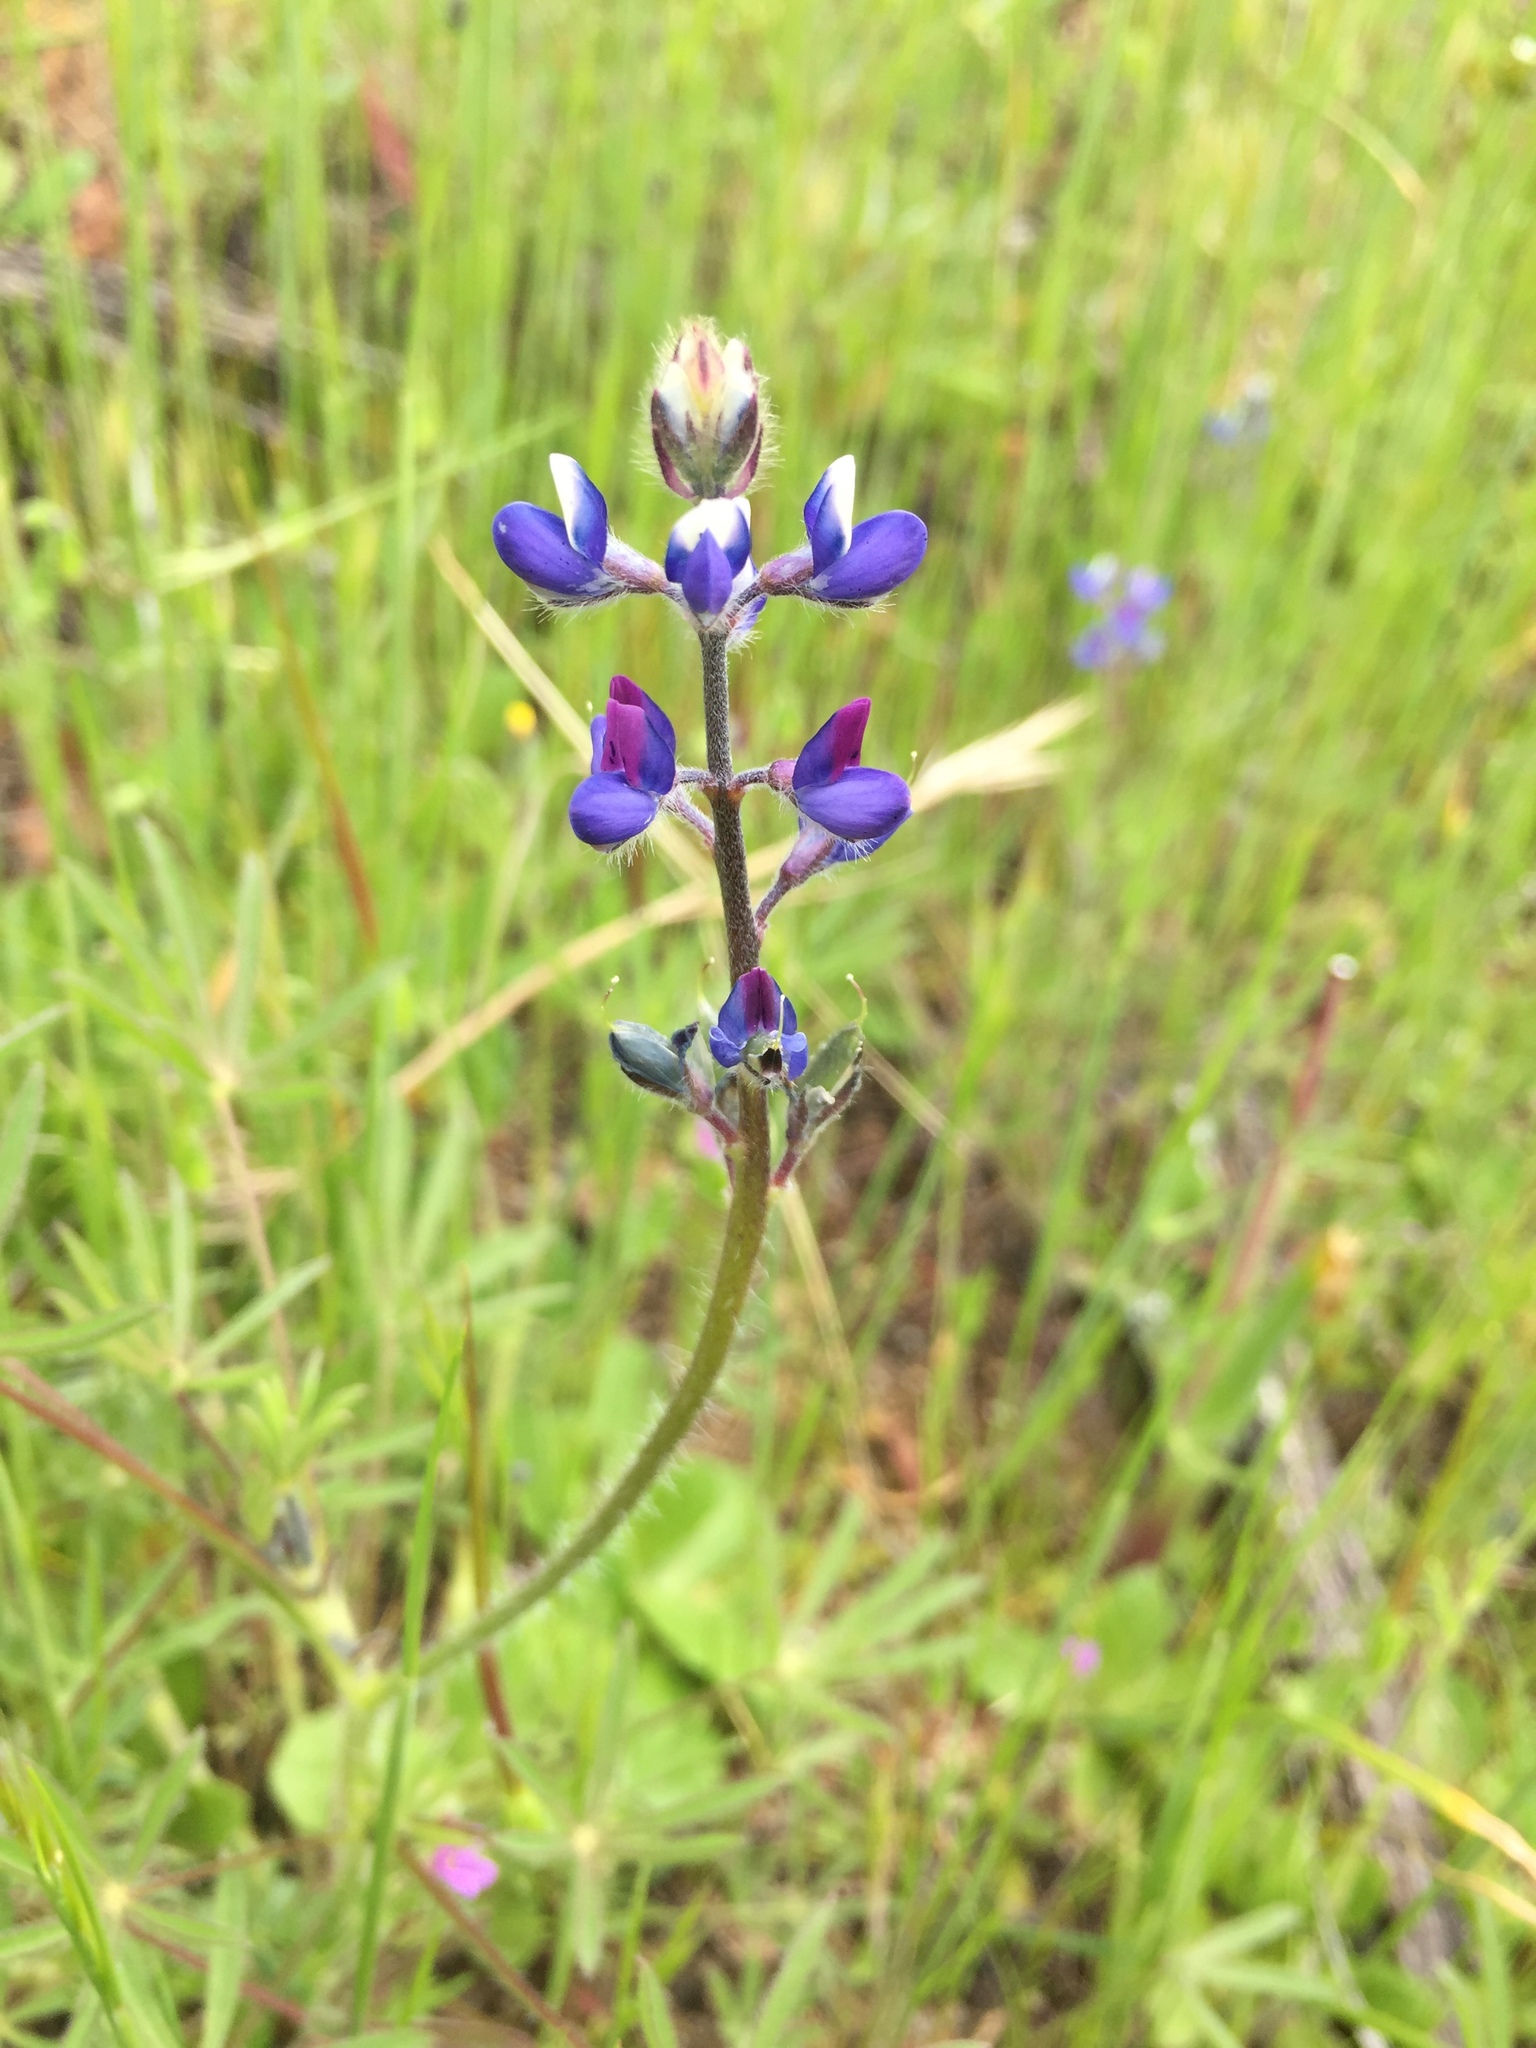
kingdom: Plantae
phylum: Tracheophyta
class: Magnoliopsida
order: Fabales
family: Fabaceae
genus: Lupinus
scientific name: Lupinus bicolor
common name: Miniature lupine
